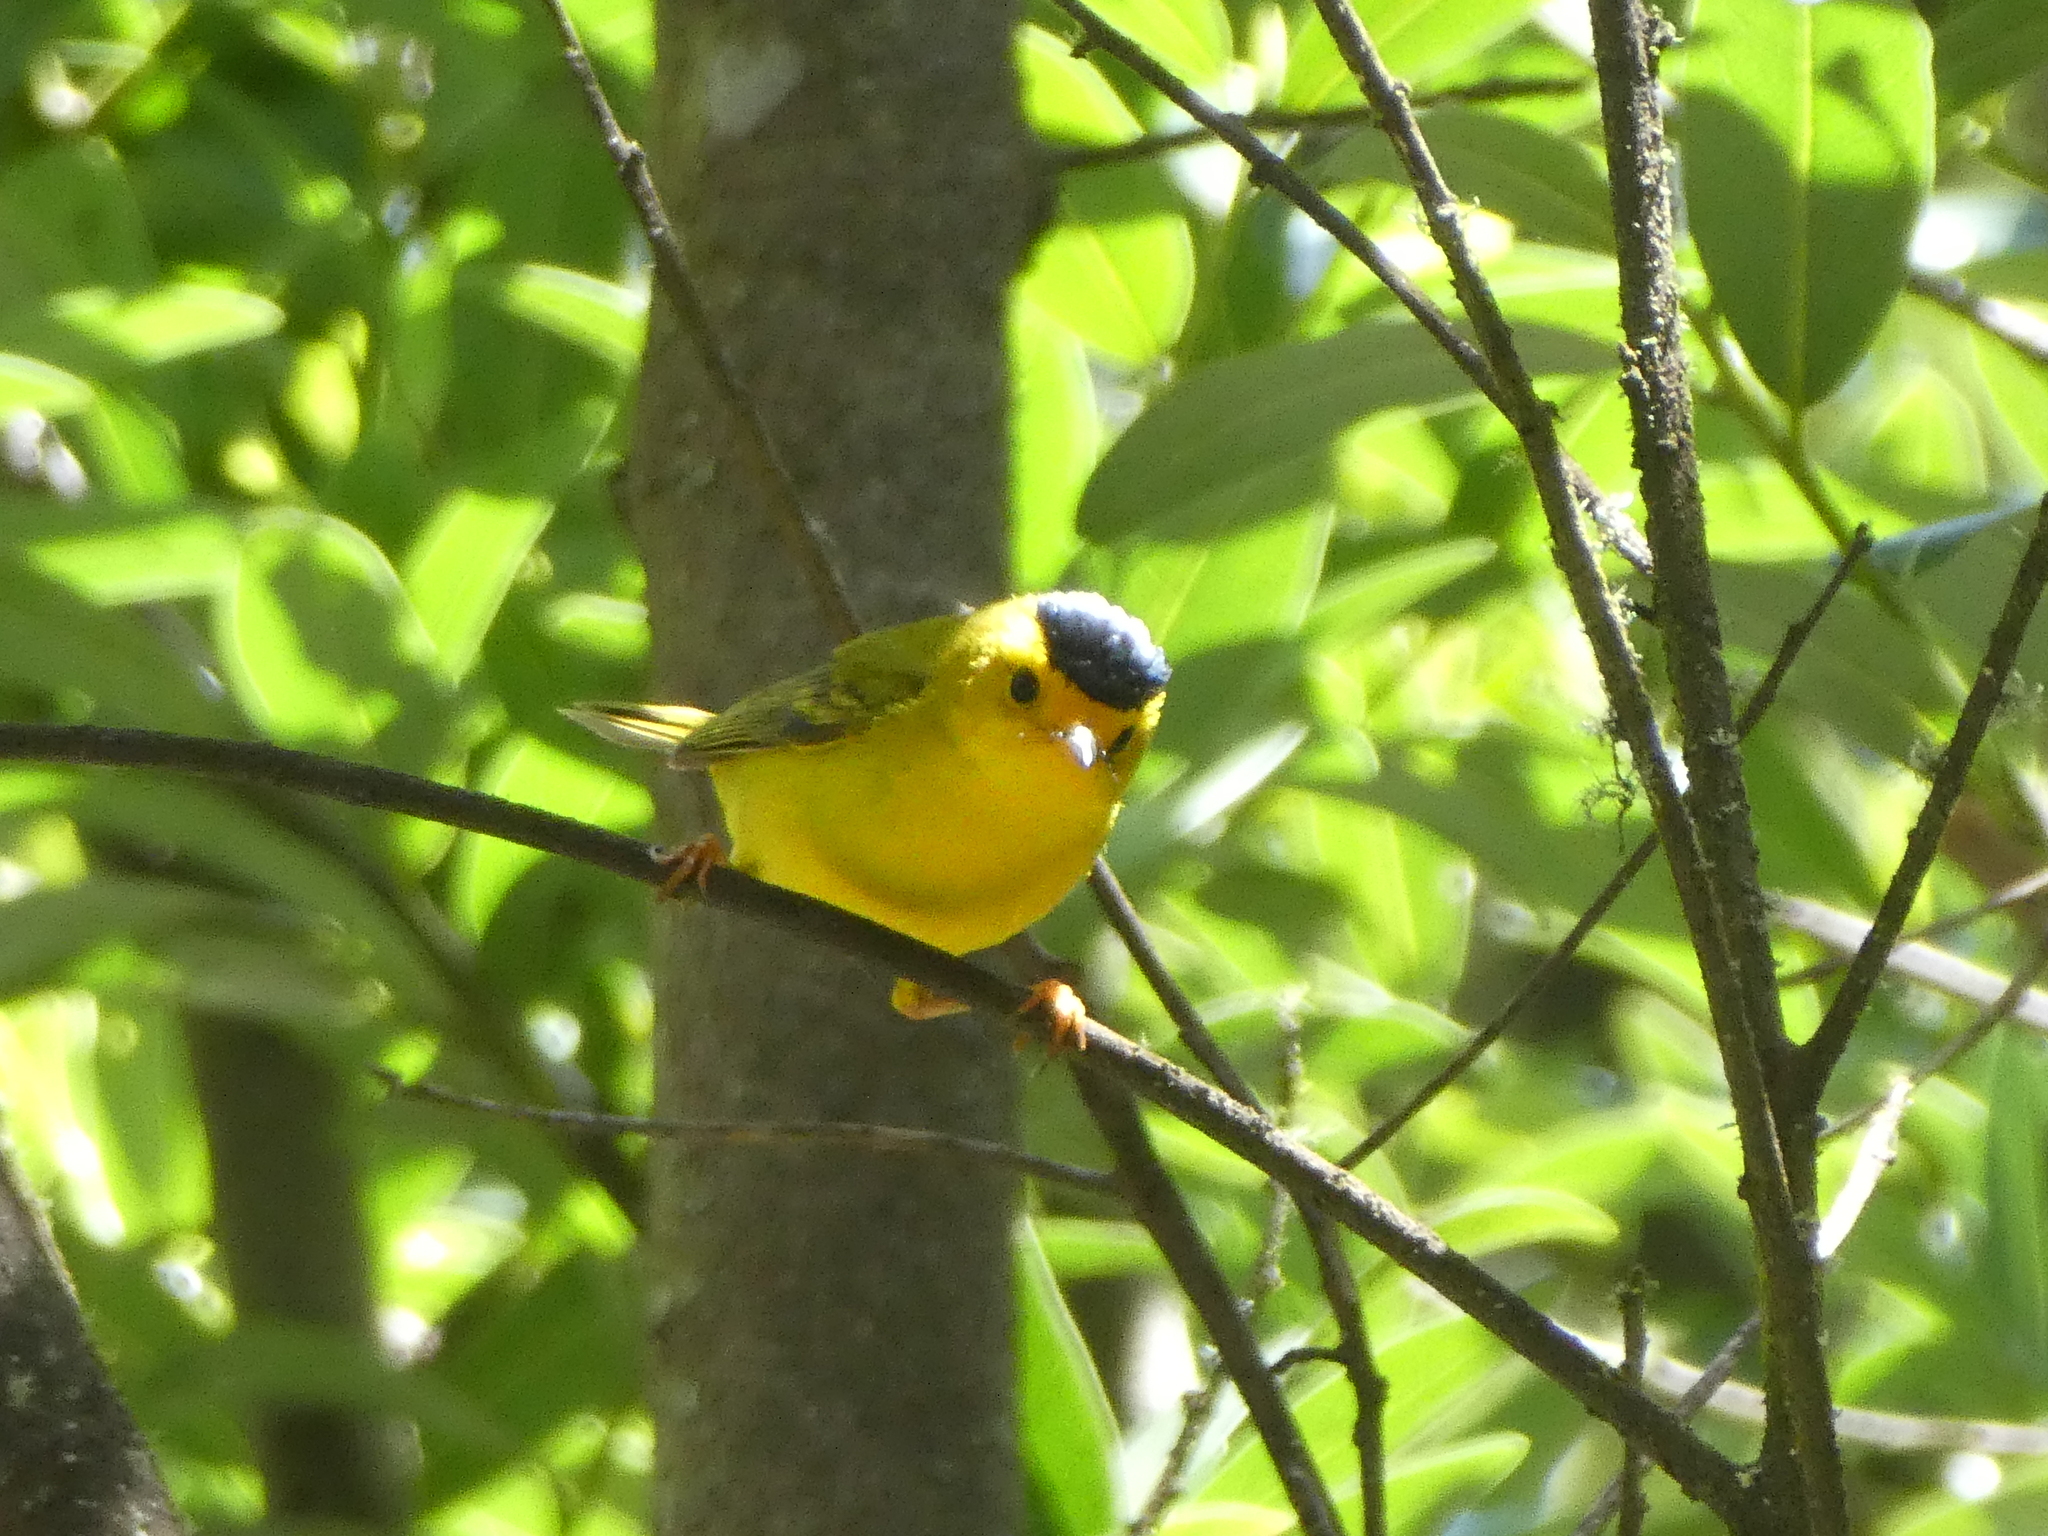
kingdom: Animalia
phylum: Chordata
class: Aves
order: Passeriformes
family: Parulidae
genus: Cardellina
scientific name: Cardellina pusilla
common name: Wilson's warbler
